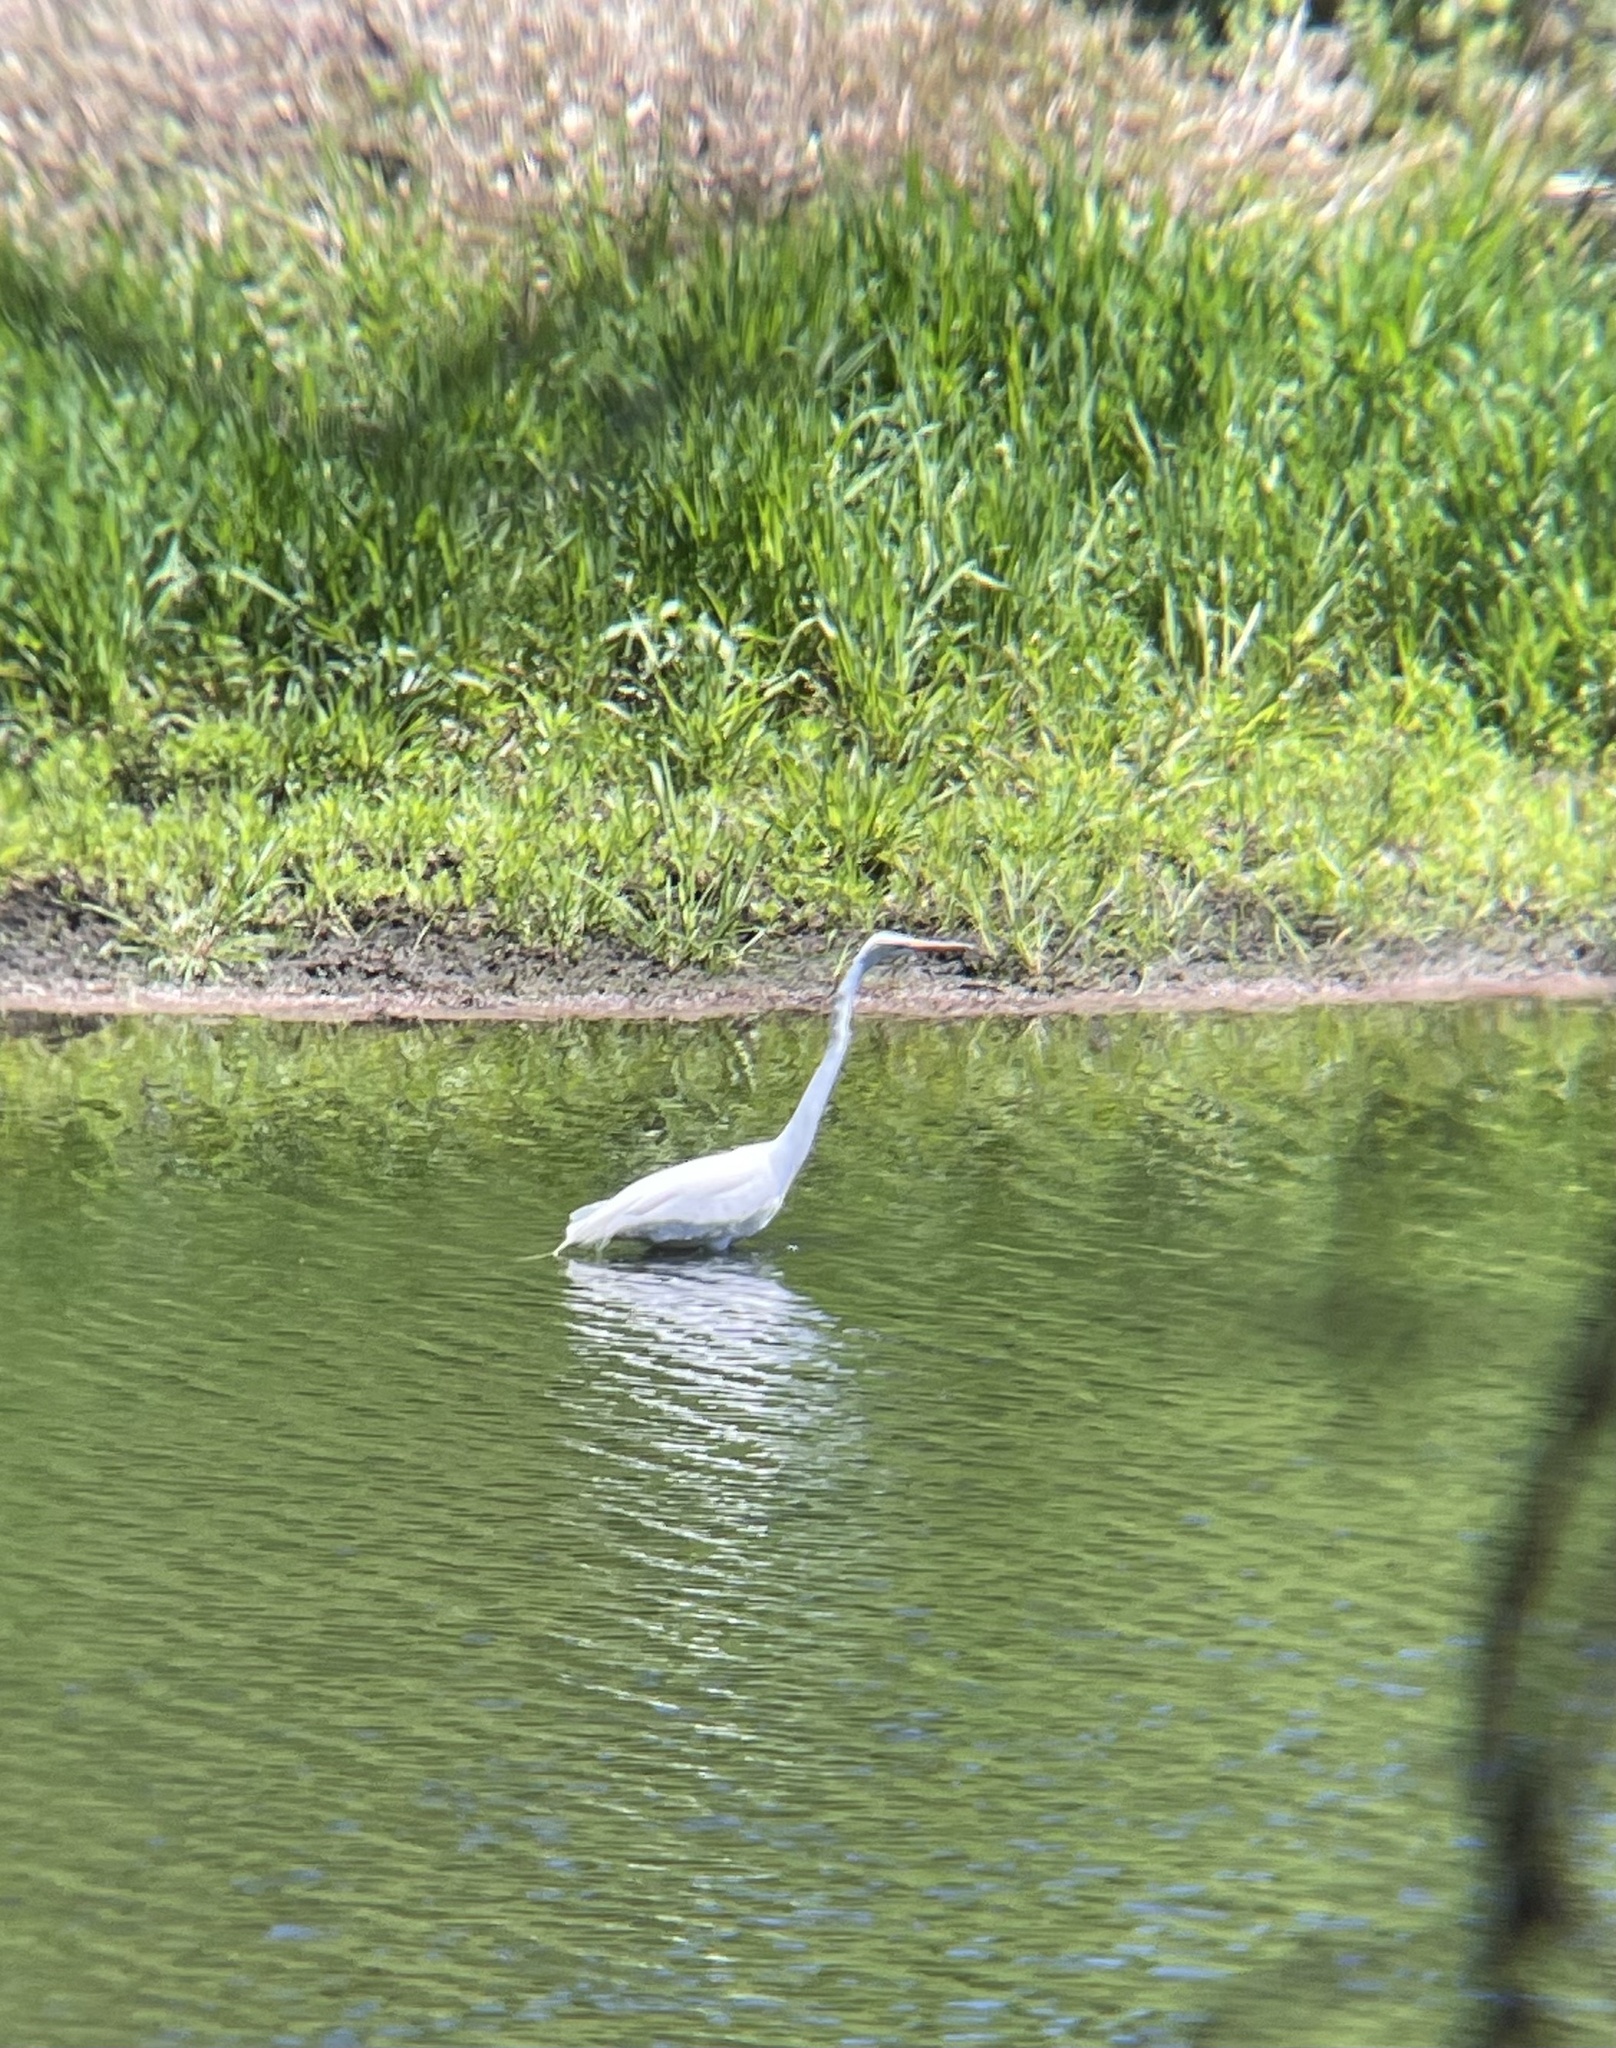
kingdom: Animalia
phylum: Chordata
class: Aves
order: Pelecaniformes
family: Ardeidae
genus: Ardea
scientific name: Ardea alba
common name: Great egret
